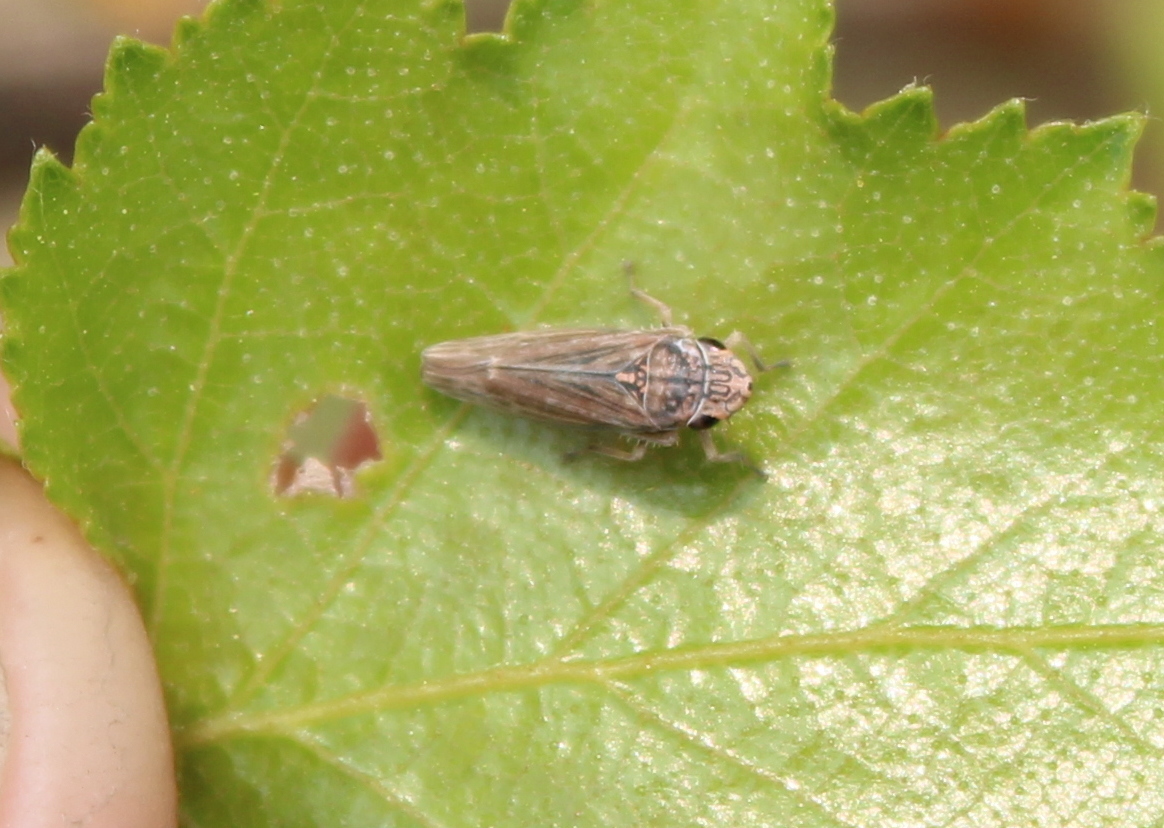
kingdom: Animalia
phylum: Arthropoda
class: Insecta
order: Hemiptera
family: Cicadellidae
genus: Neokolla
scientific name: Neokolla hieroglyphica
